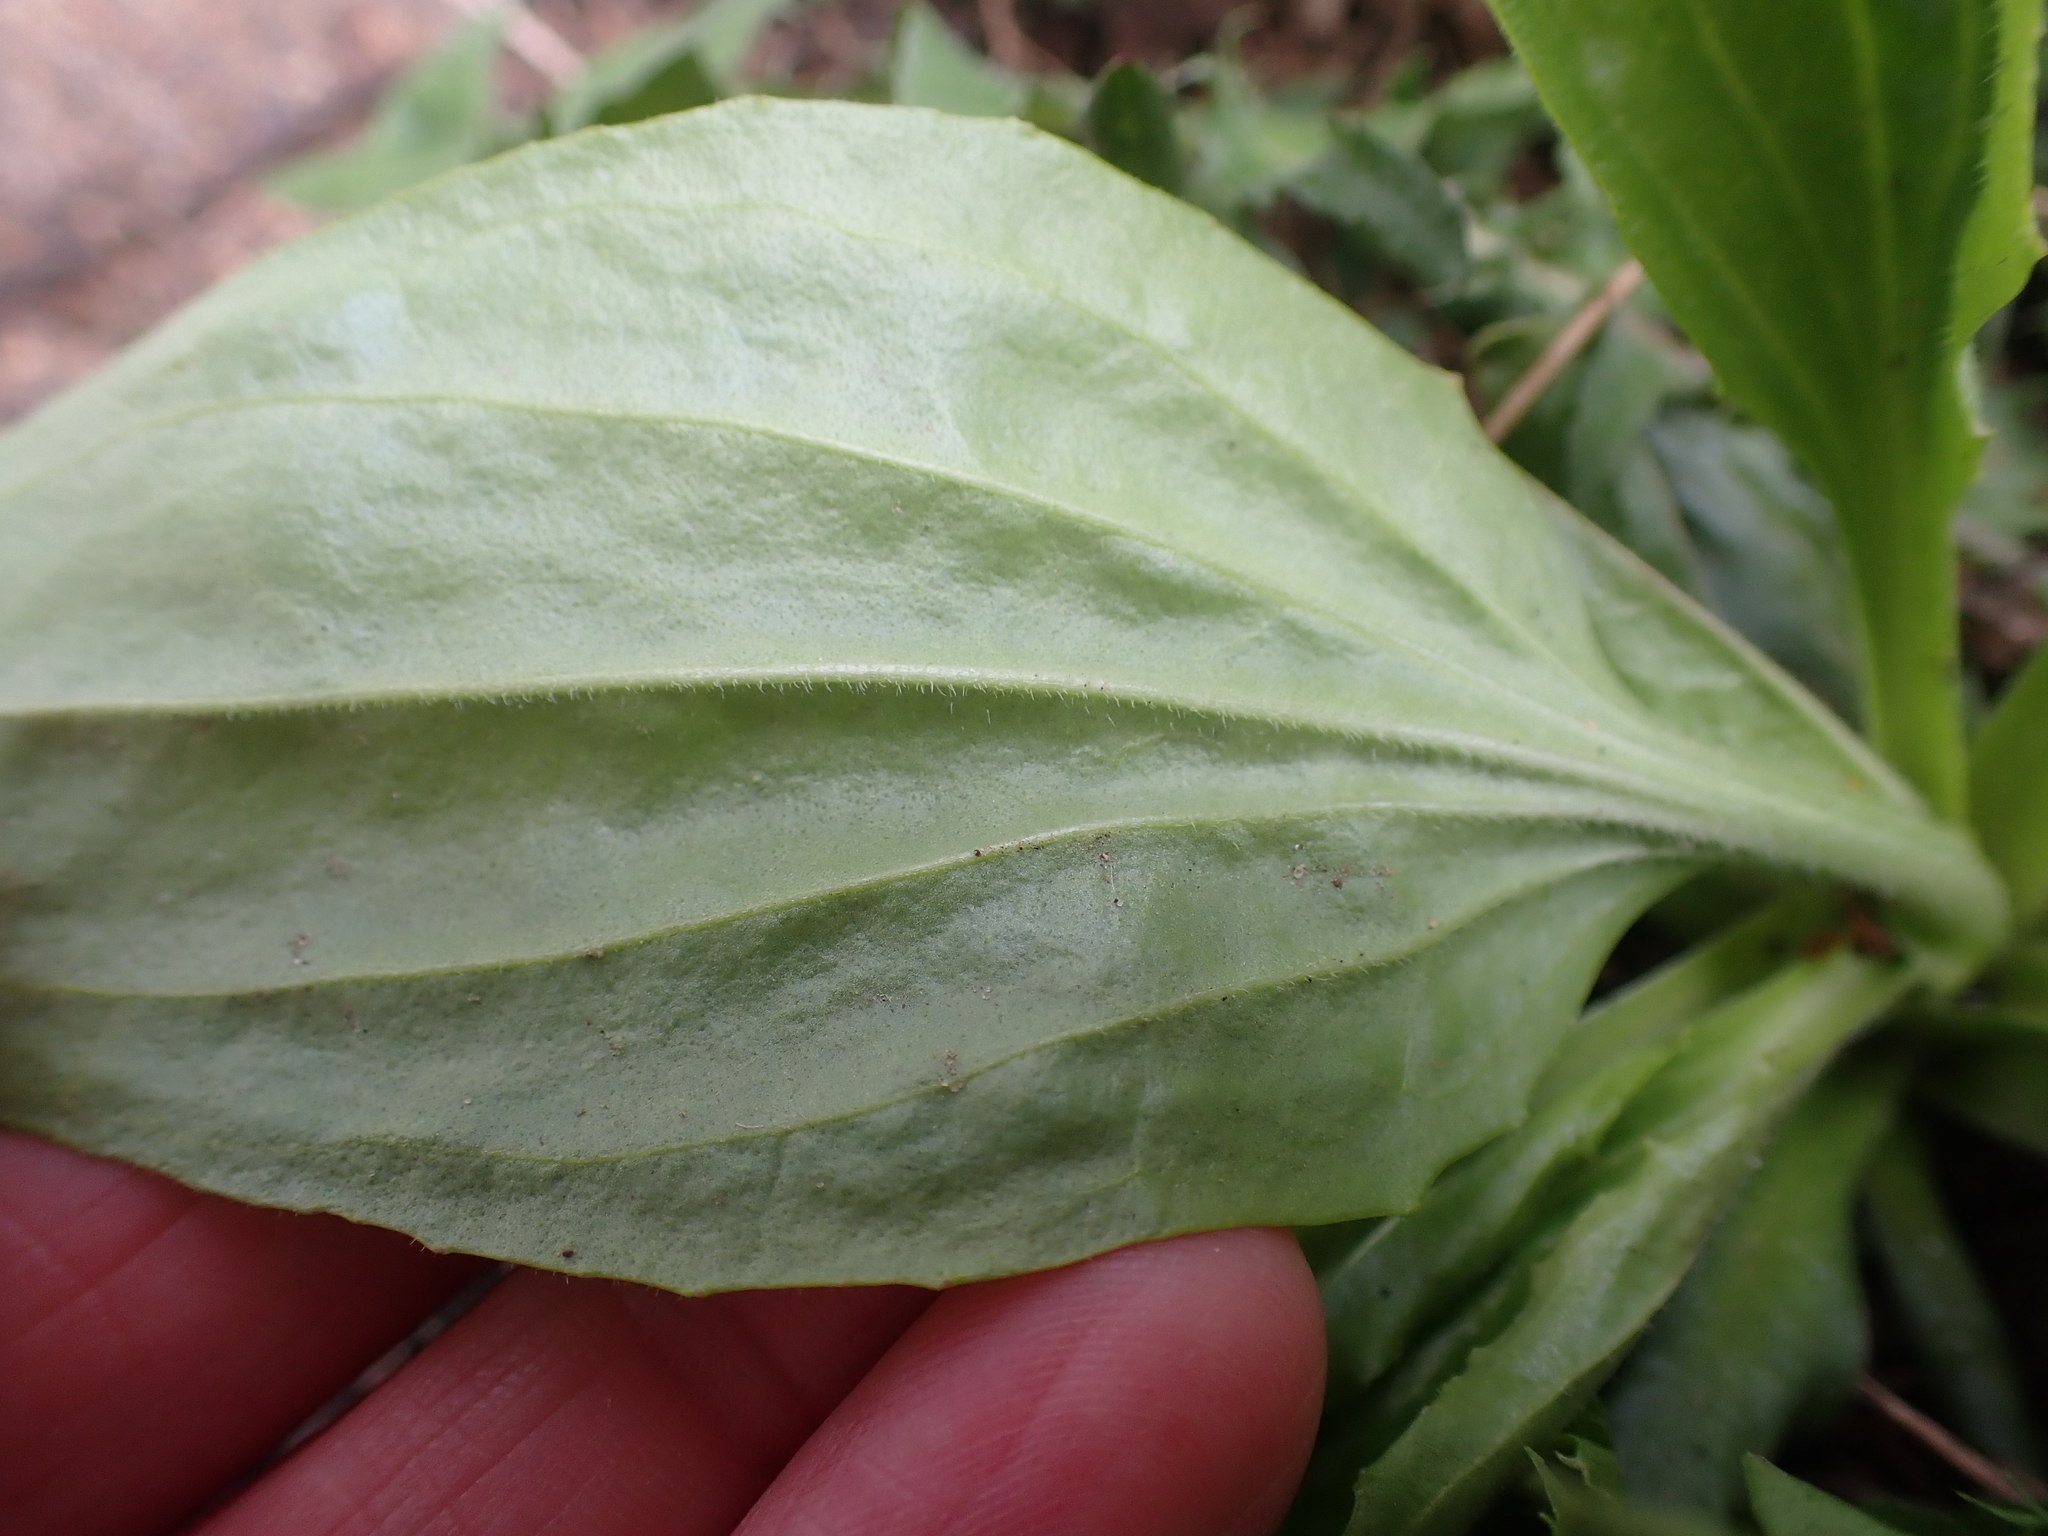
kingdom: Plantae
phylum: Tracheophyta
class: Magnoliopsida
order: Lamiales
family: Plantaginaceae
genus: Plantago
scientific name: Plantago major
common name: Common plantain
